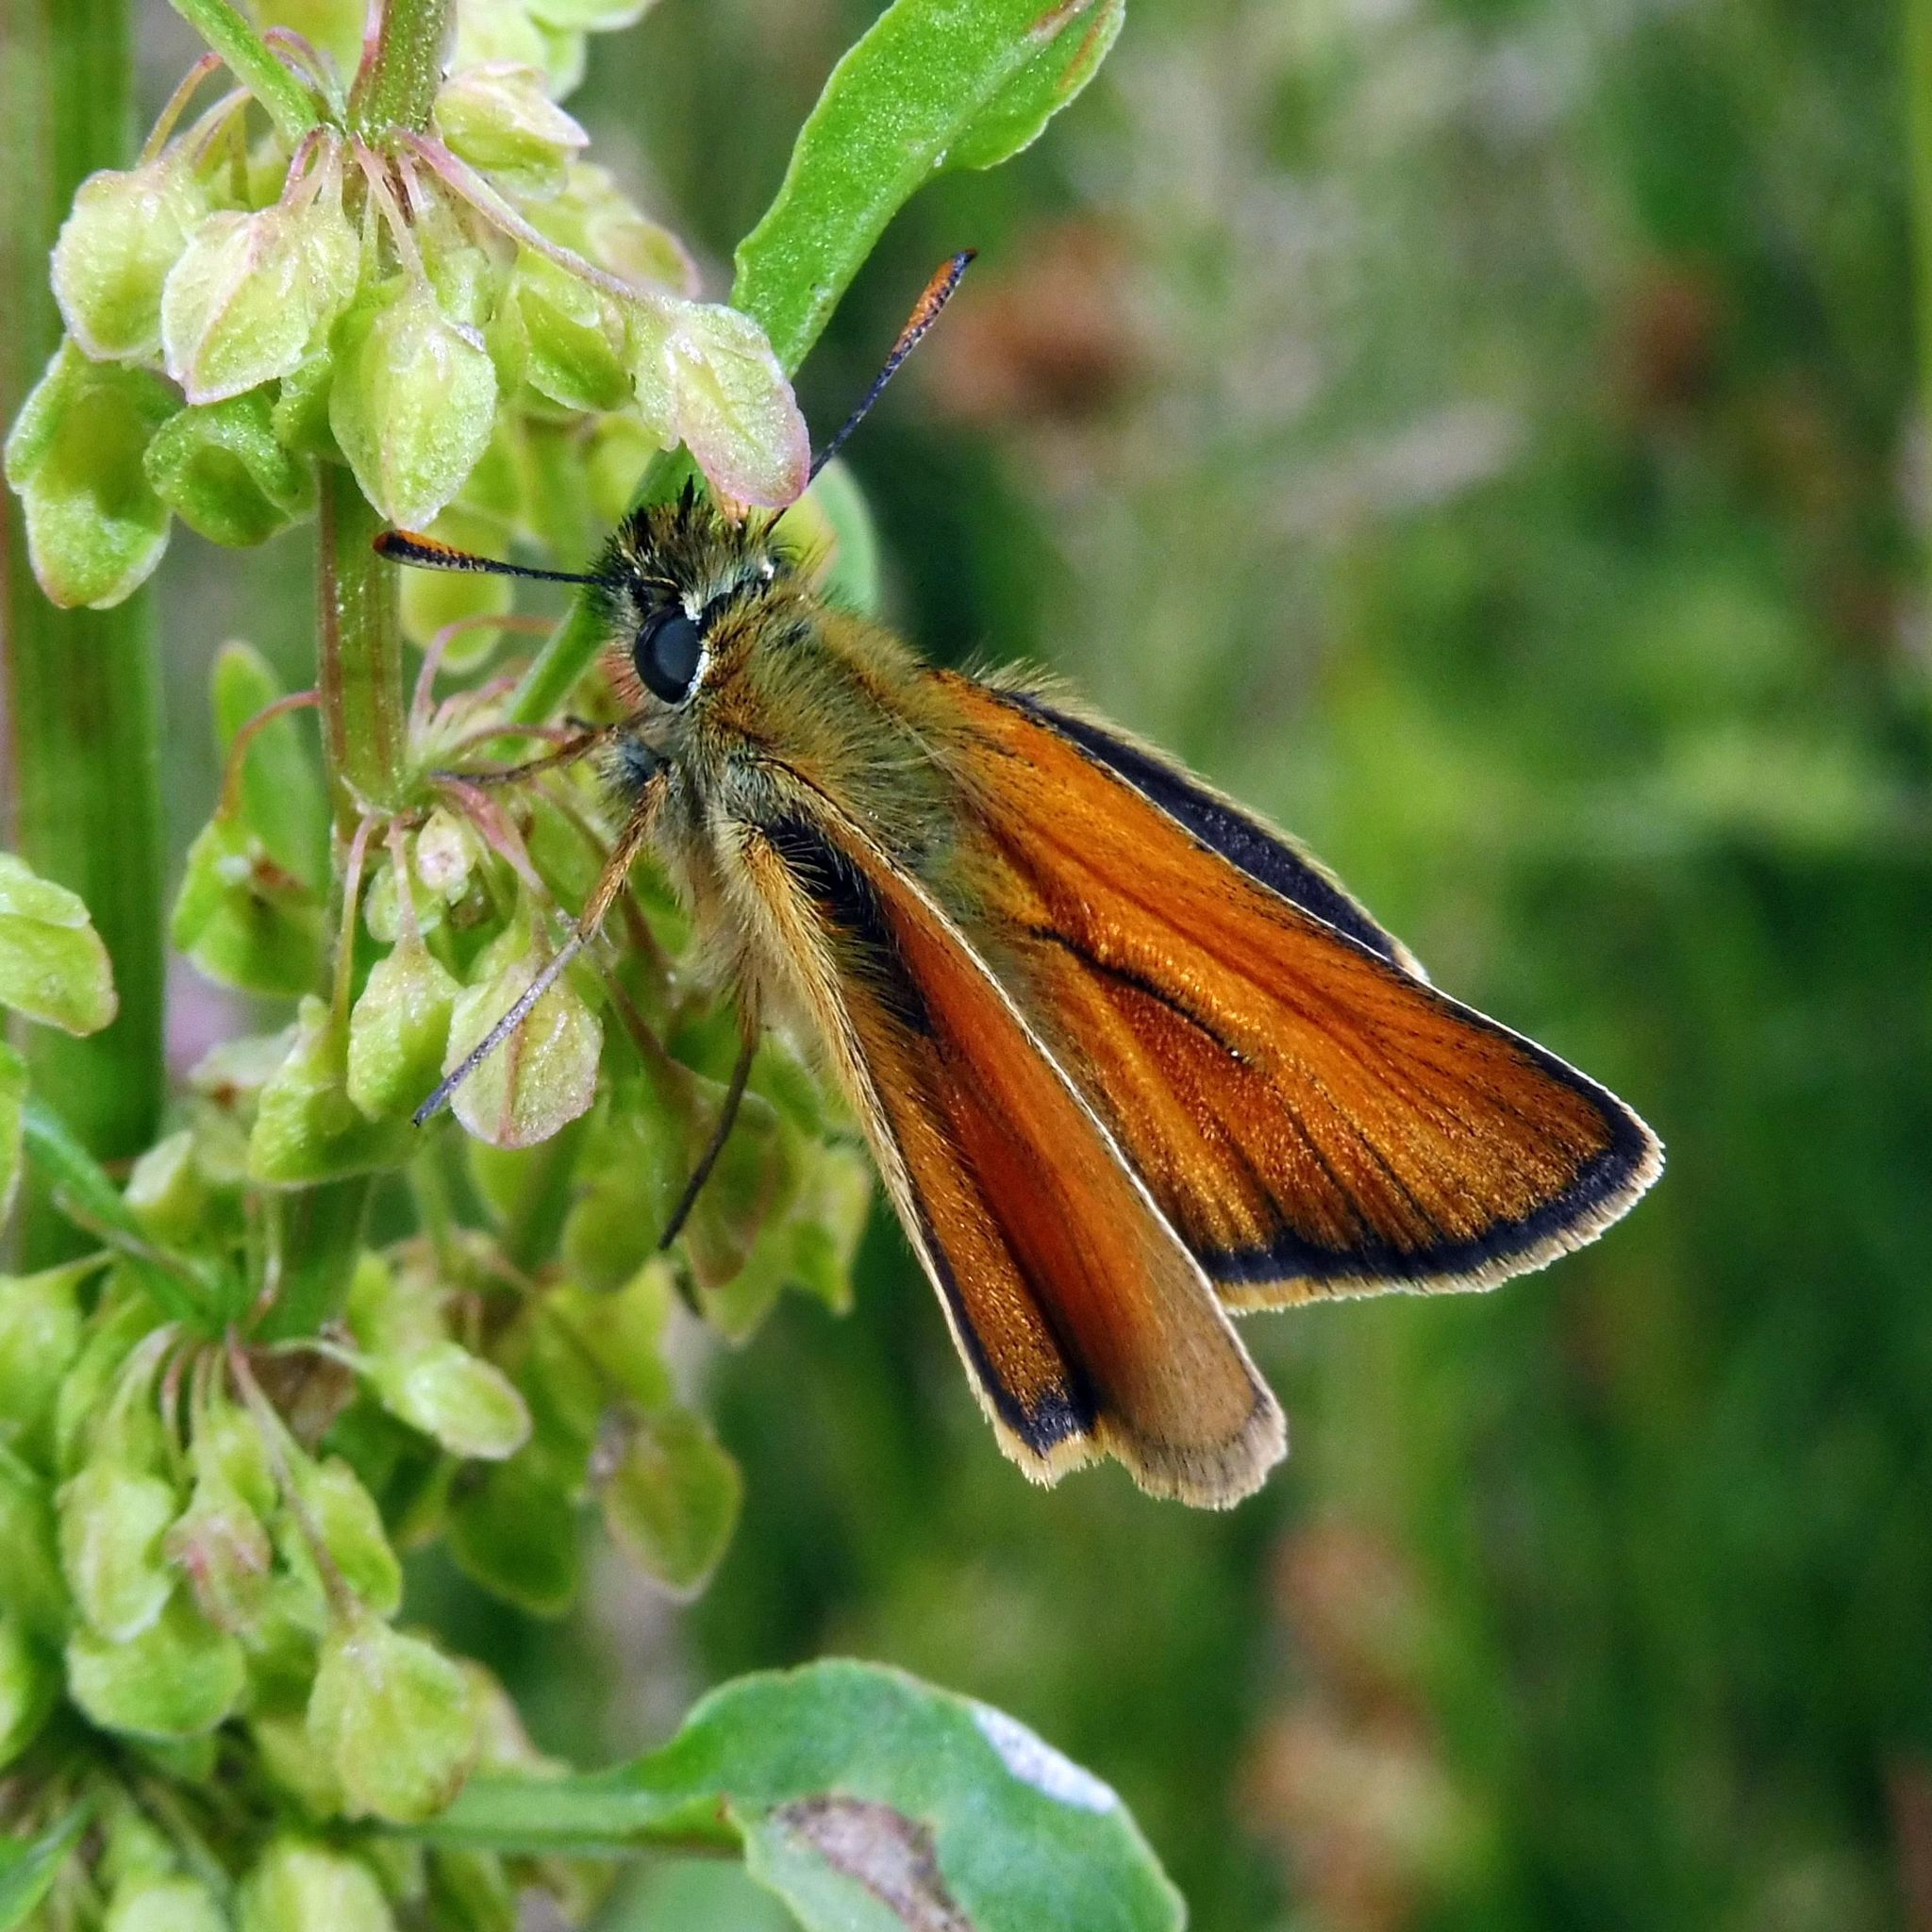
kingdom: Animalia
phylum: Arthropoda
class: Insecta
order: Lepidoptera
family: Hesperiidae
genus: Thymelicus
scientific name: Thymelicus sylvestris
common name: Small skipper
